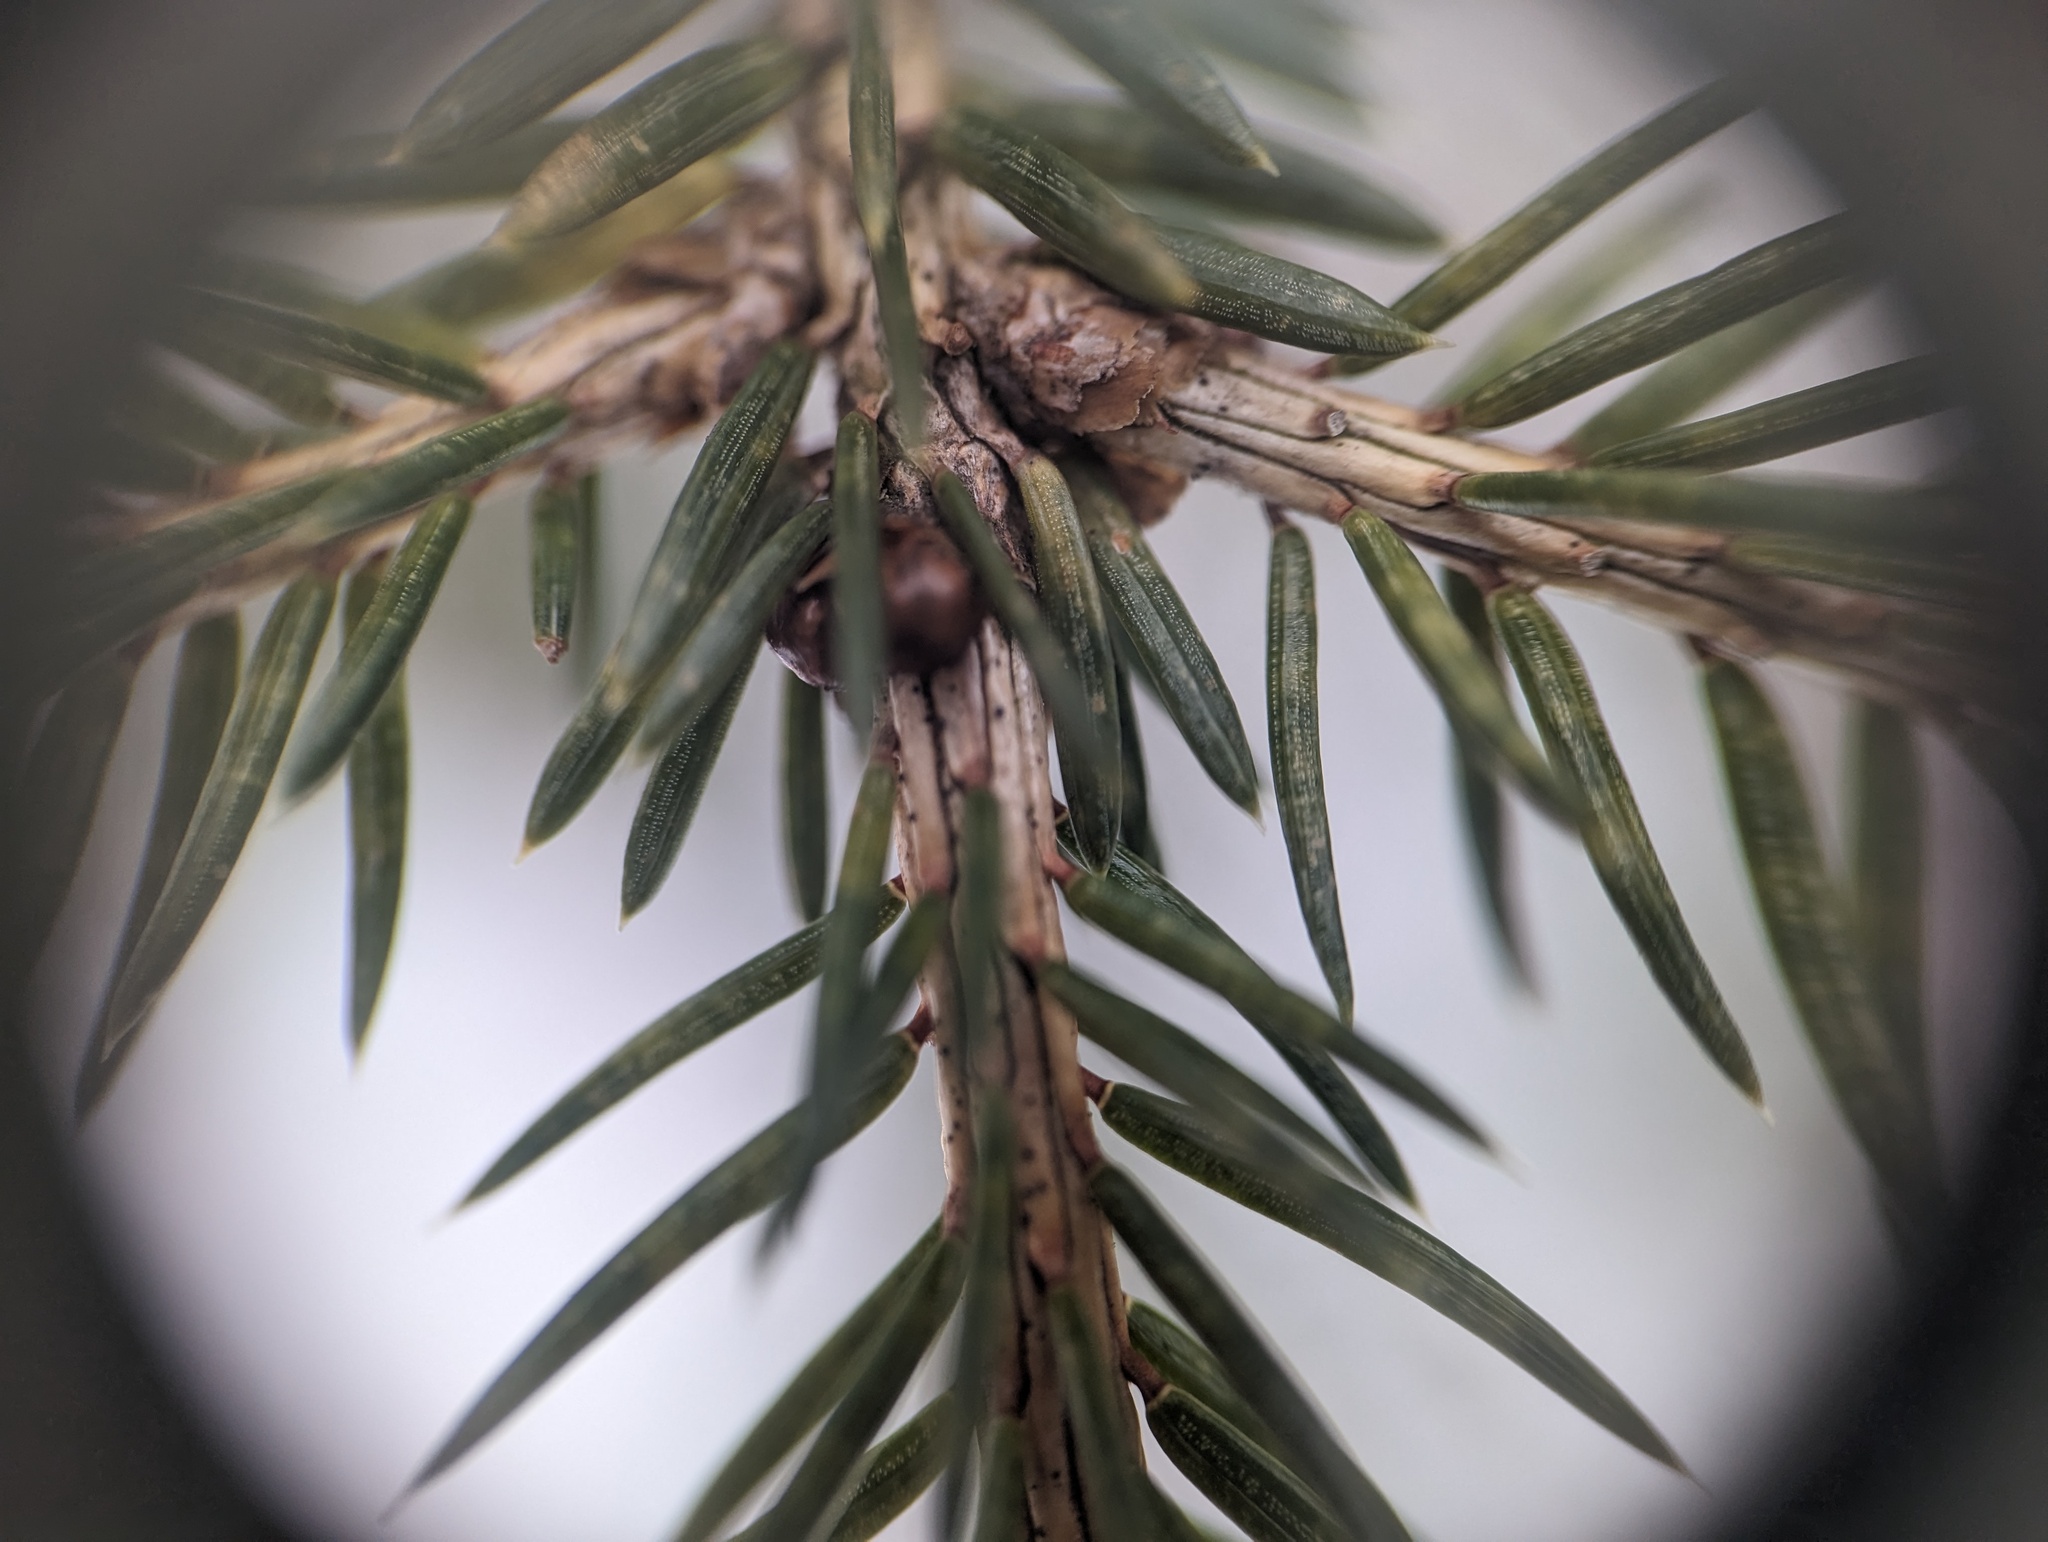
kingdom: Fungi
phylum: Ascomycota
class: Dothideomycetes
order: Pleosporales
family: Phaeosphaeriaceae
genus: Setomelanomma
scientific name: Setomelanomma holmii
